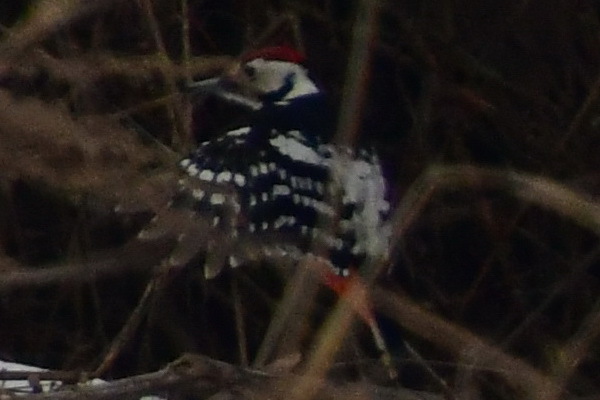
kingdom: Animalia
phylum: Chordata
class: Aves
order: Piciformes
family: Picidae
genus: Dendrocopos
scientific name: Dendrocopos leucotos
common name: White-backed woodpecker
